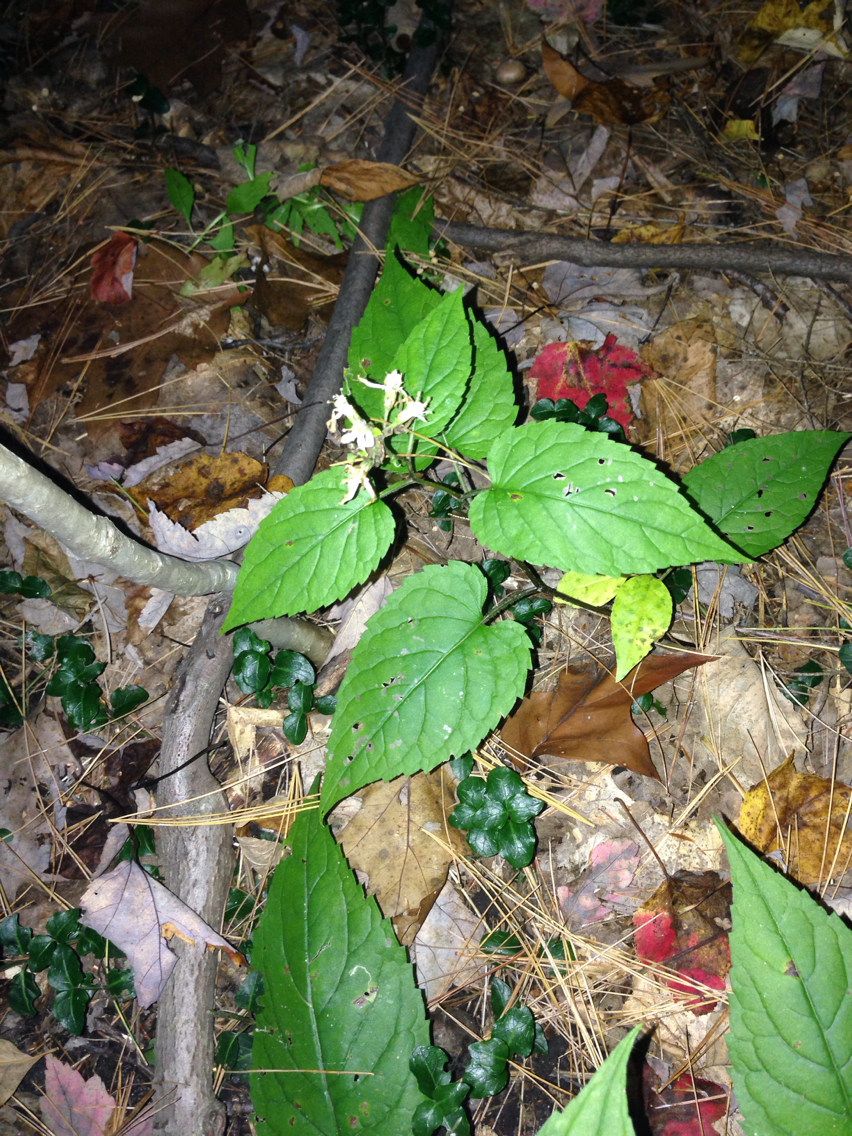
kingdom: Plantae
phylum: Tracheophyta
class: Magnoliopsida
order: Asterales
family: Asteraceae
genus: Eurybia
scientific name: Eurybia divaricata
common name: White wood aster
